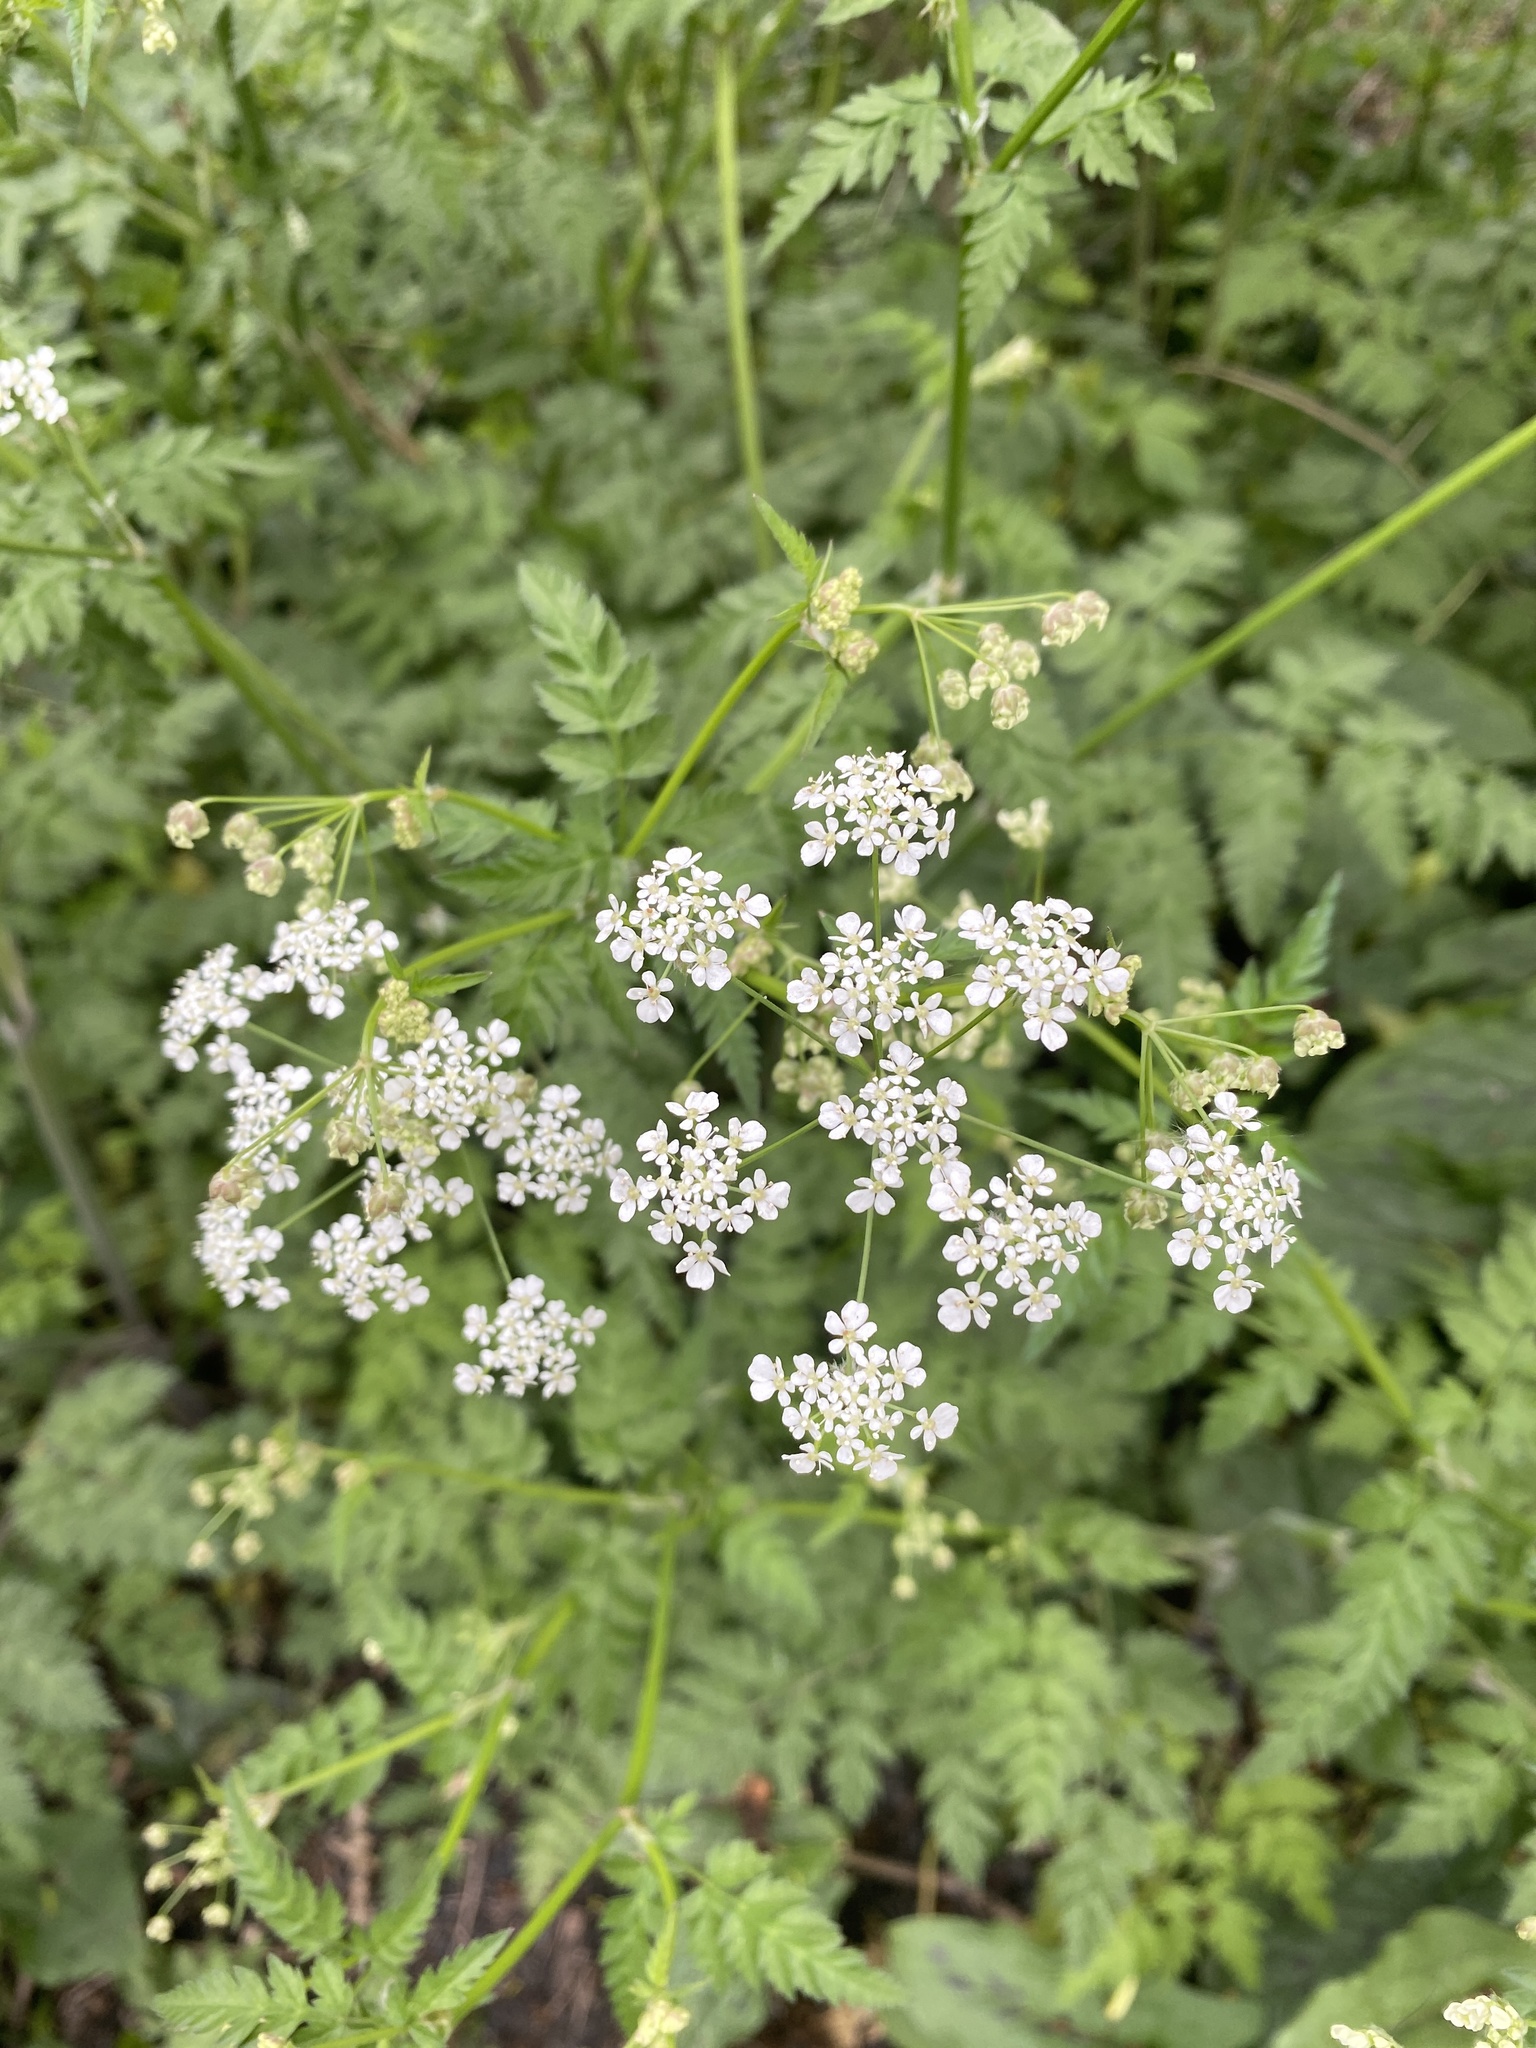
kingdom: Plantae
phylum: Tracheophyta
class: Magnoliopsida
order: Apiales
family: Apiaceae
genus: Anthriscus
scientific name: Anthriscus sylvestris
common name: Cow parsley
